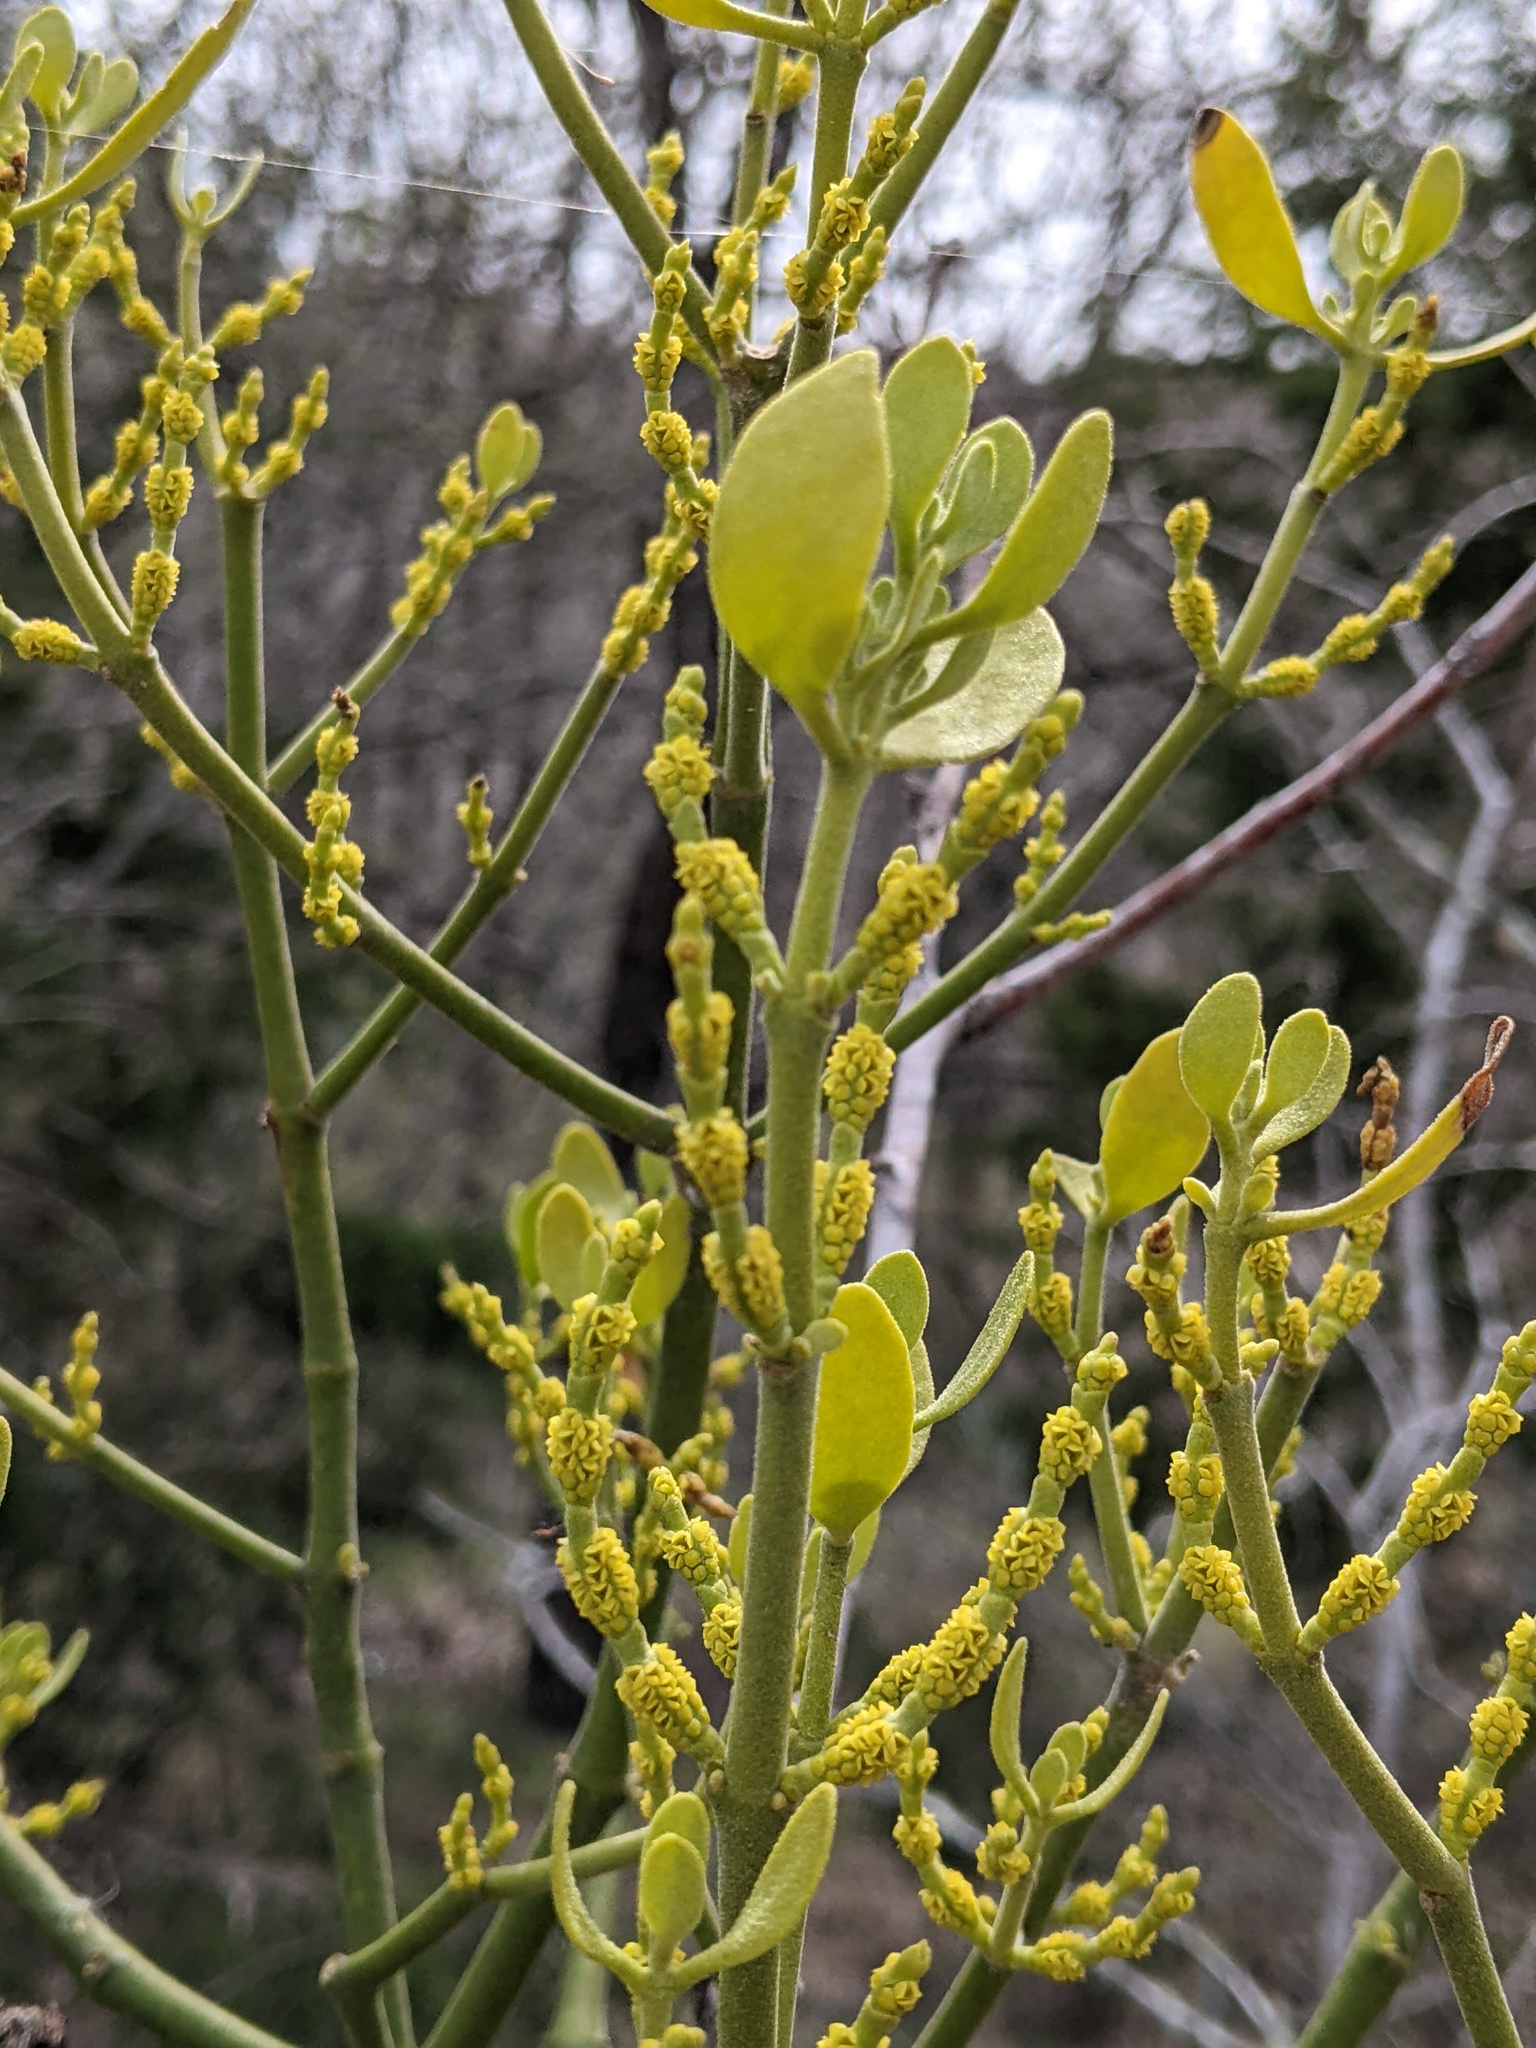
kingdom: Plantae
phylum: Tracheophyta
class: Magnoliopsida
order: Santalales
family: Viscaceae
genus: Phoradendron
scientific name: Phoradendron leucarpum
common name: Pacific mistletoe
